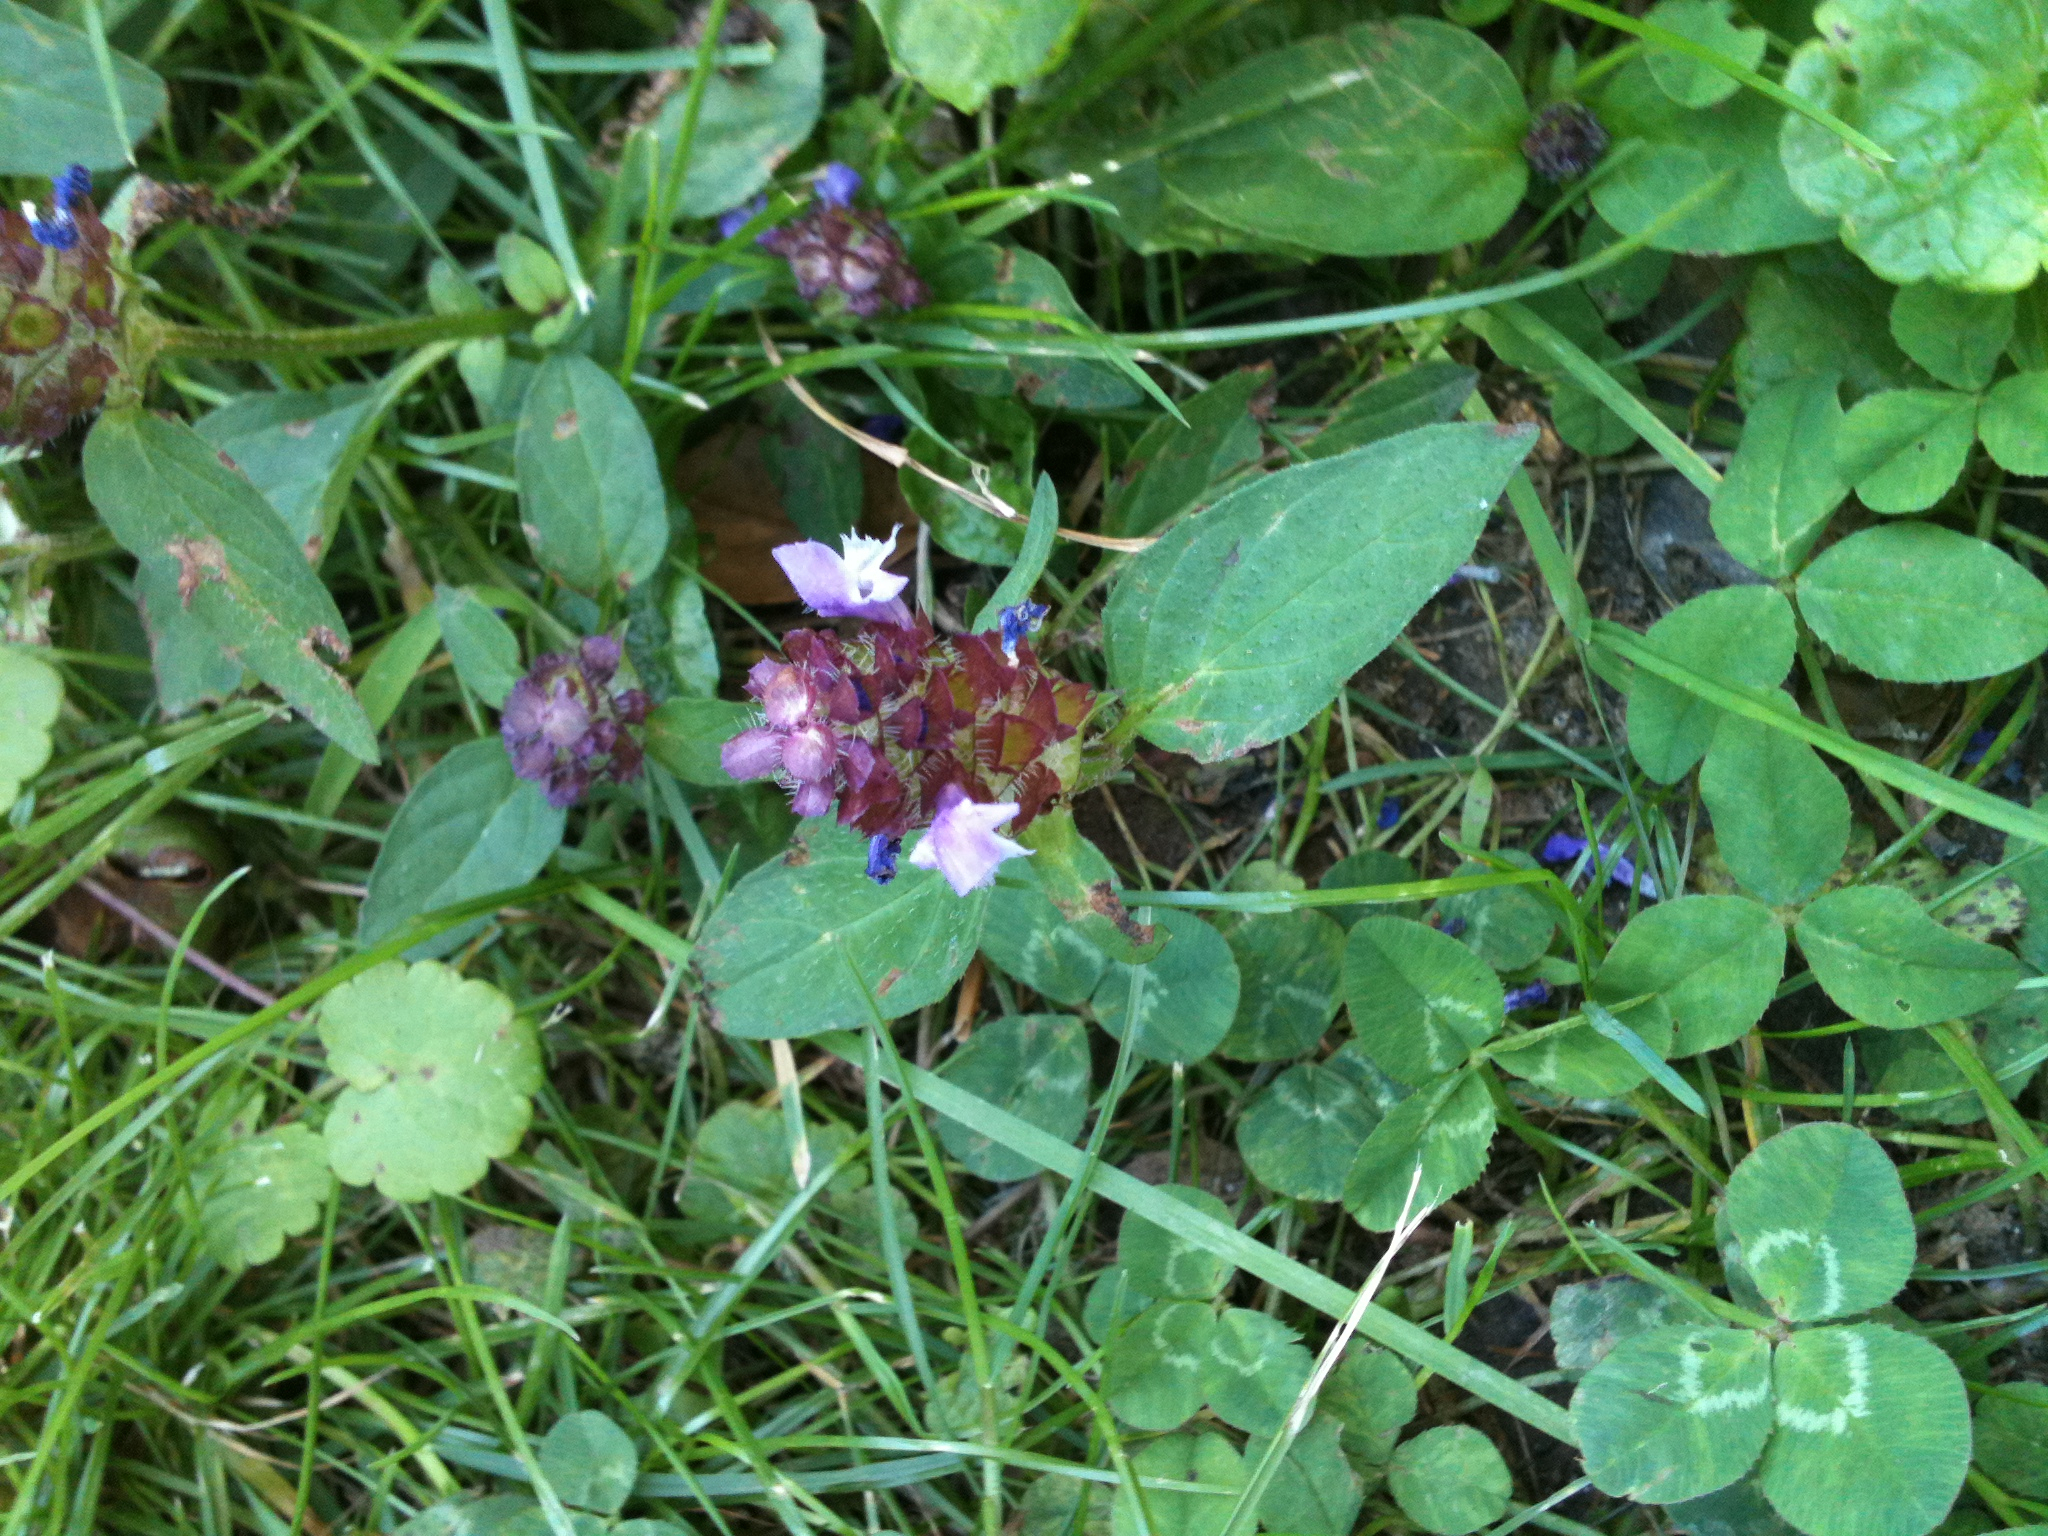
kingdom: Plantae
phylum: Tracheophyta
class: Magnoliopsida
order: Lamiales
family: Lamiaceae
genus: Prunella
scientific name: Prunella vulgaris
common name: Heal-all
